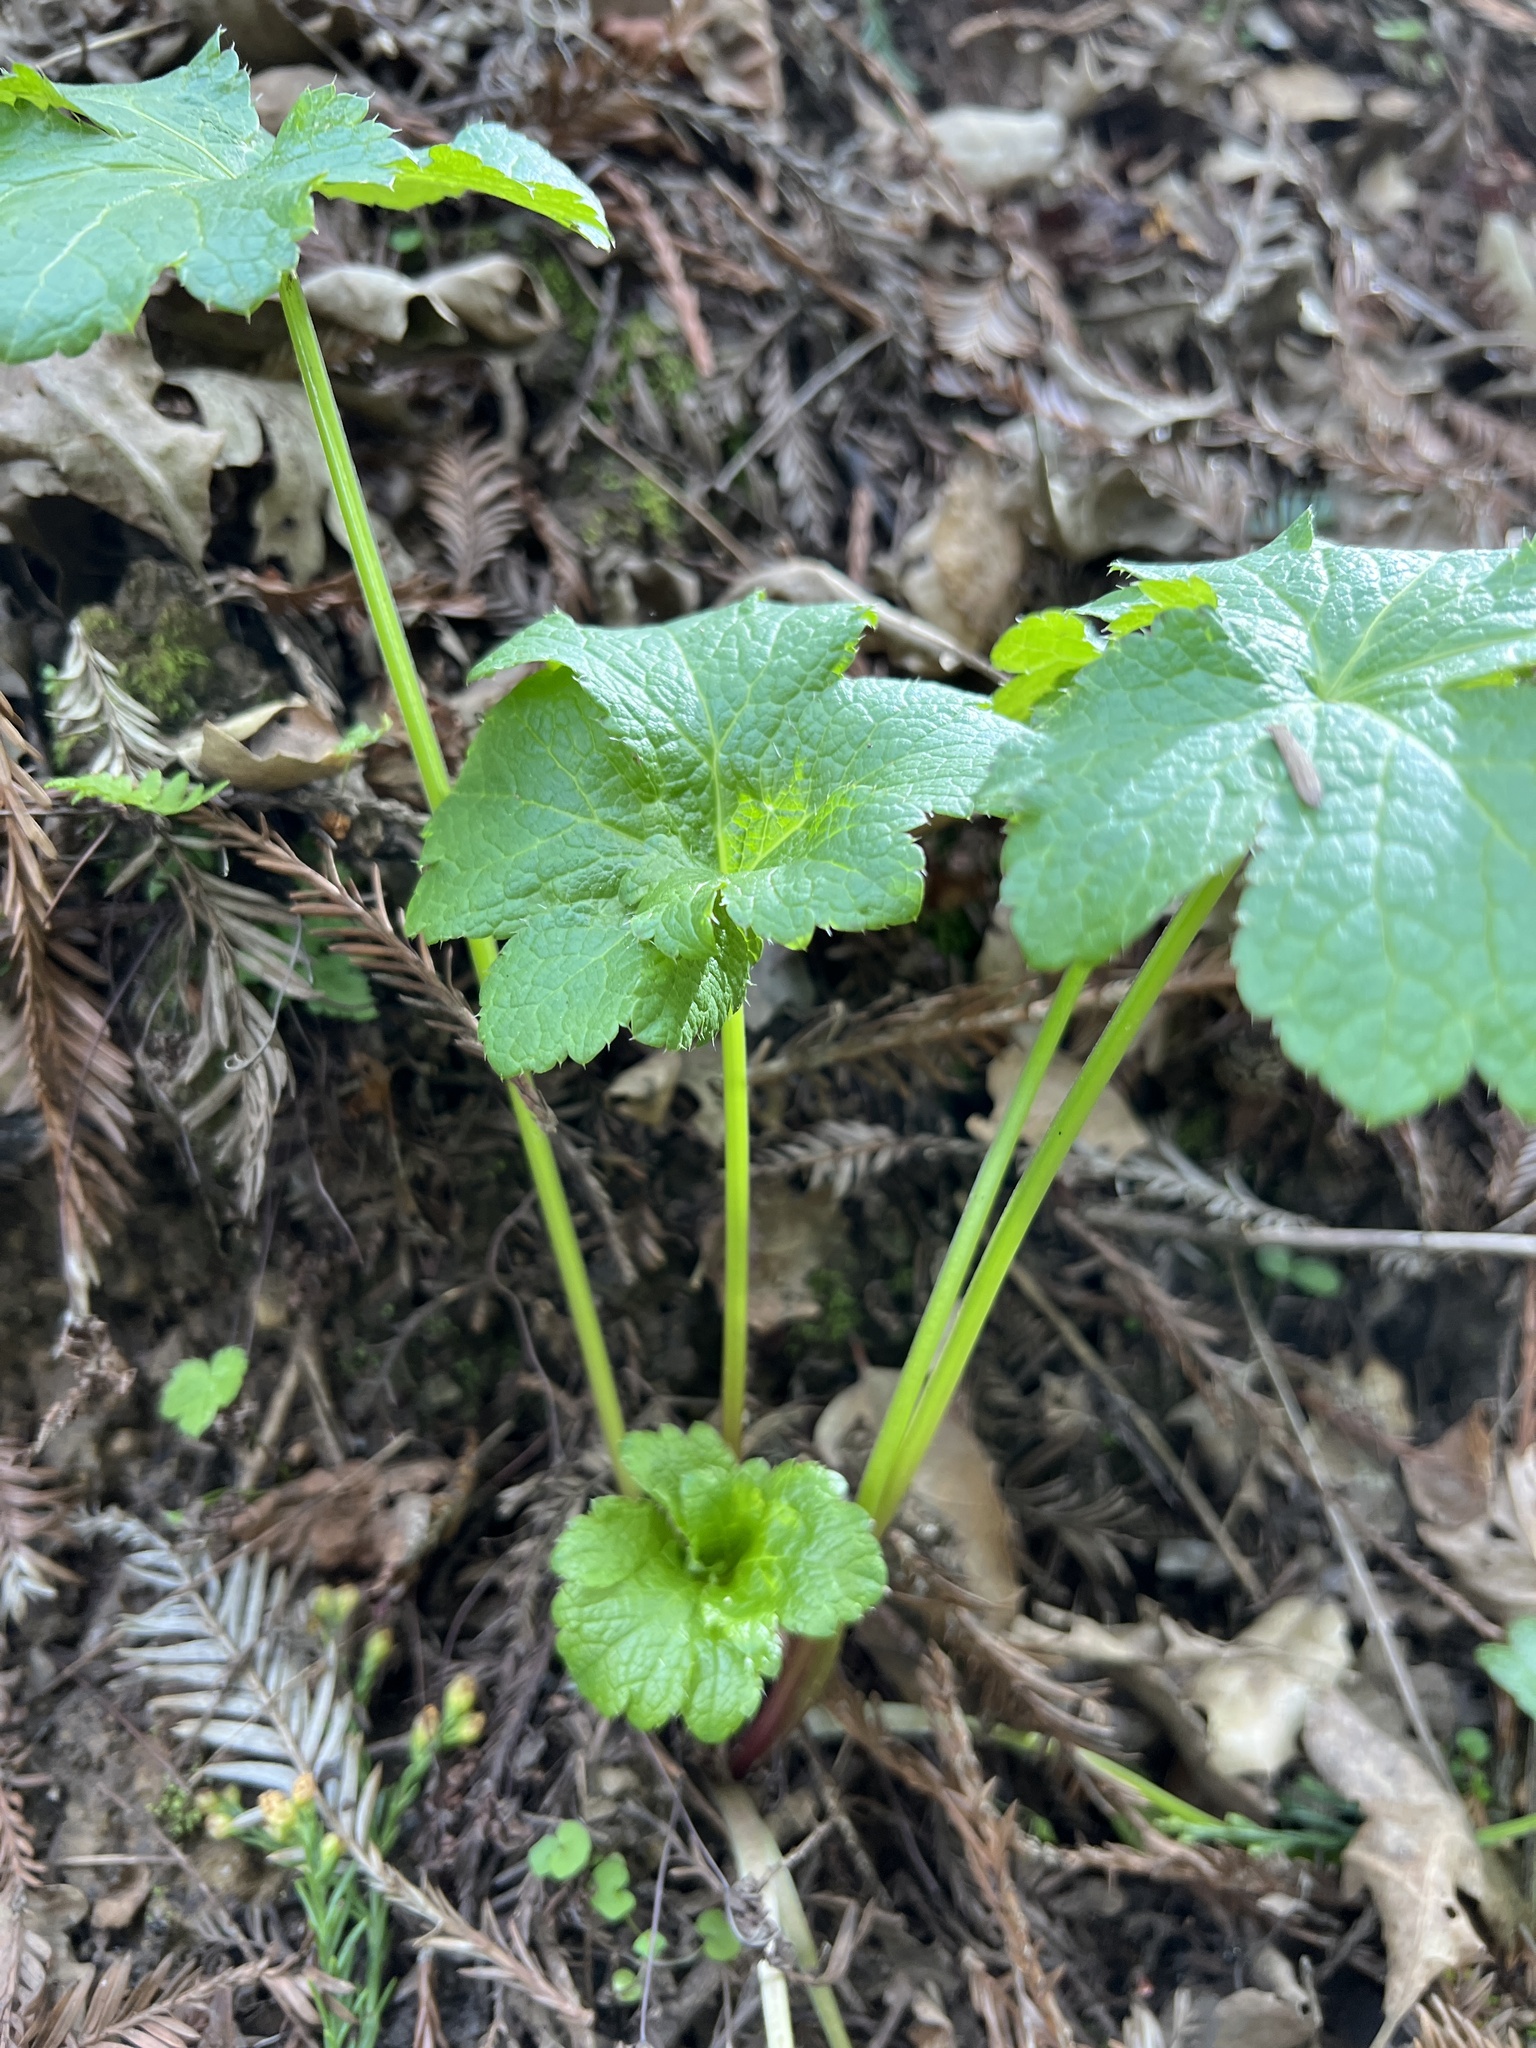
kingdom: Plantae
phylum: Tracheophyta
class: Magnoliopsida
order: Apiales
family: Apiaceae
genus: Sanicula
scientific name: Sanicula crassicaulis
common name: Western snakeroot
